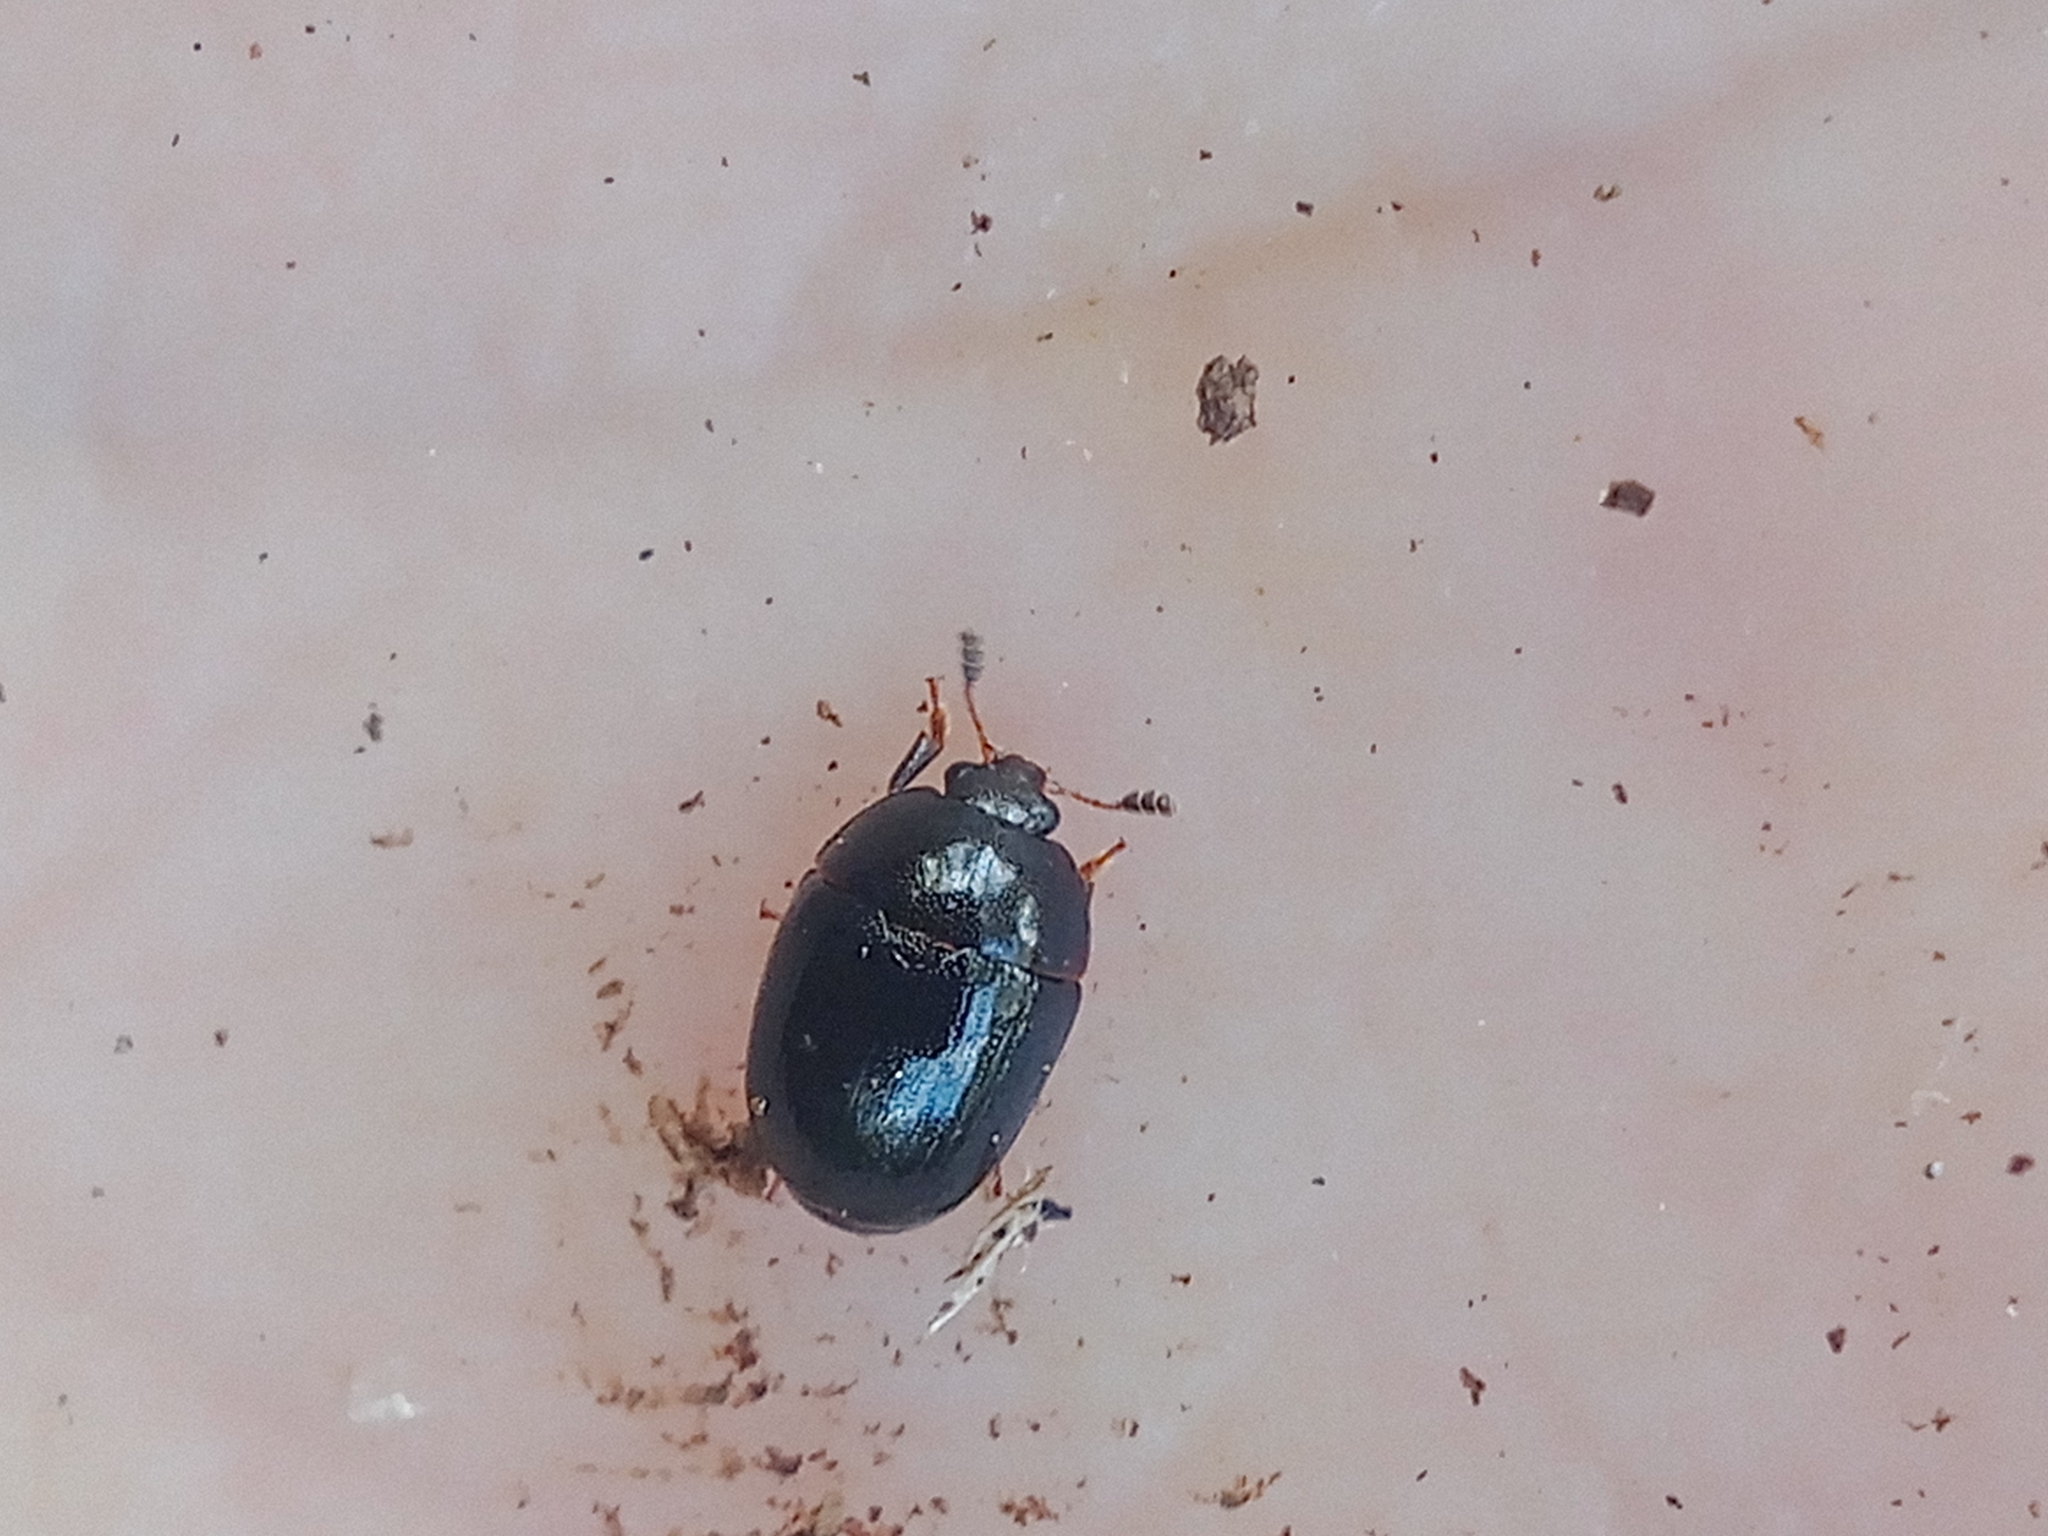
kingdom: Animalia
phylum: Arthropoda
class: Insecta
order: Coleoptera
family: Nitidulidae
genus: Cyllodes
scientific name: Cyllodes ater
